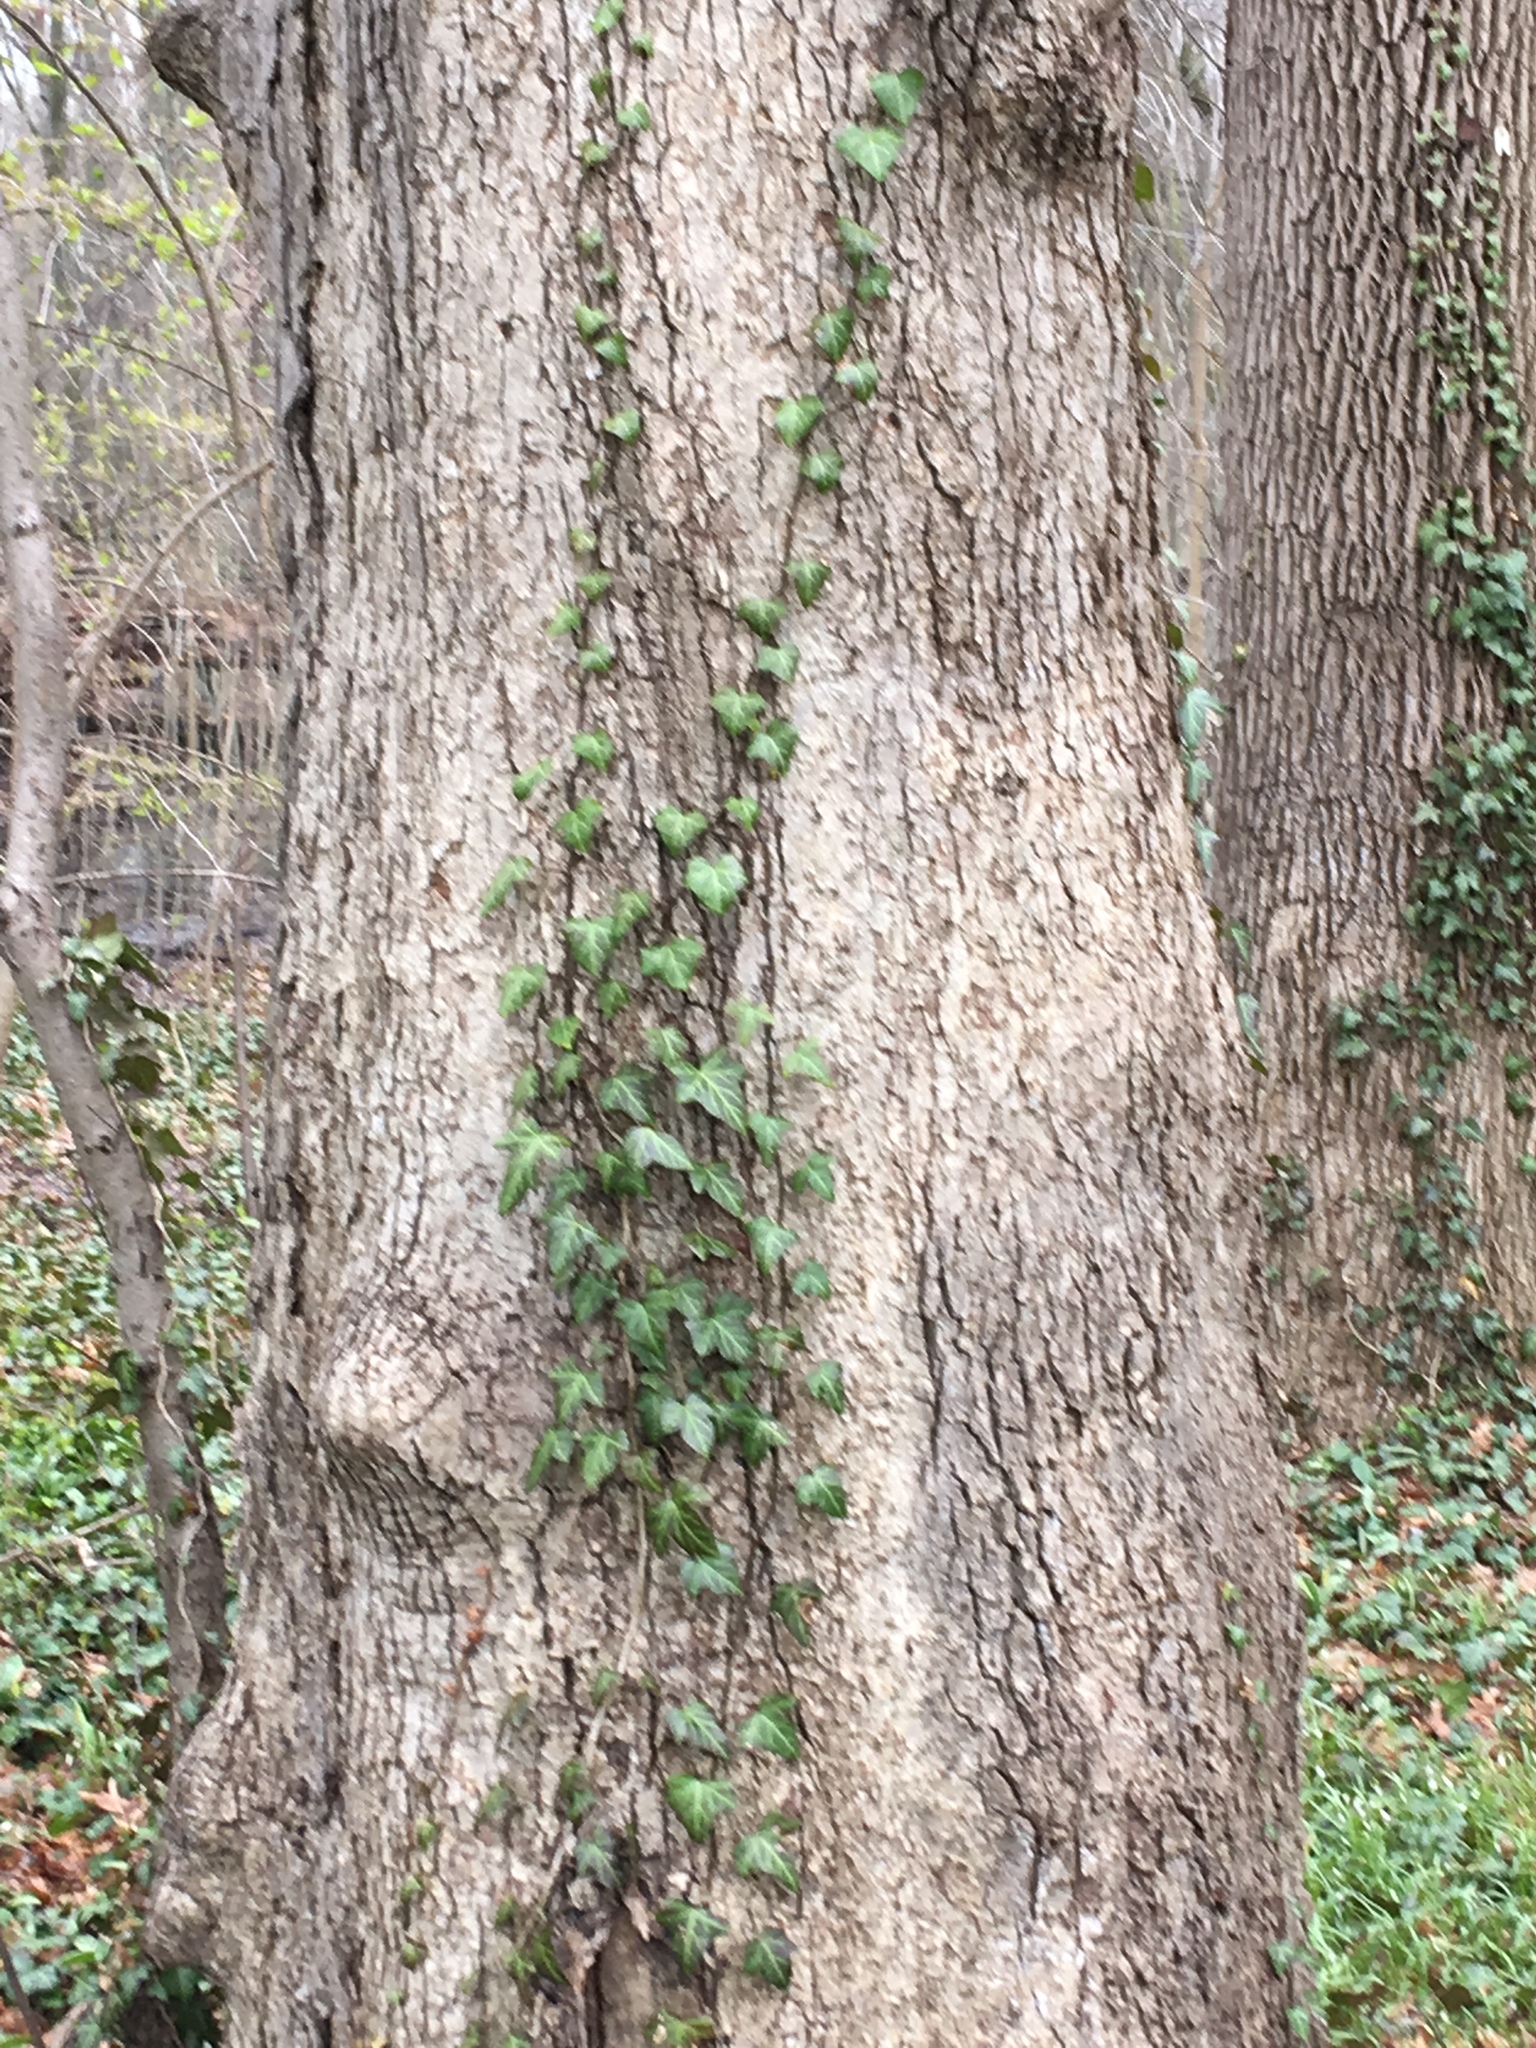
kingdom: Plantae
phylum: Tracheophyta
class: Magnoliopsida
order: Apiales
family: Araliaceae
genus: Hedera
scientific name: Hedera helix
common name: Ivy
